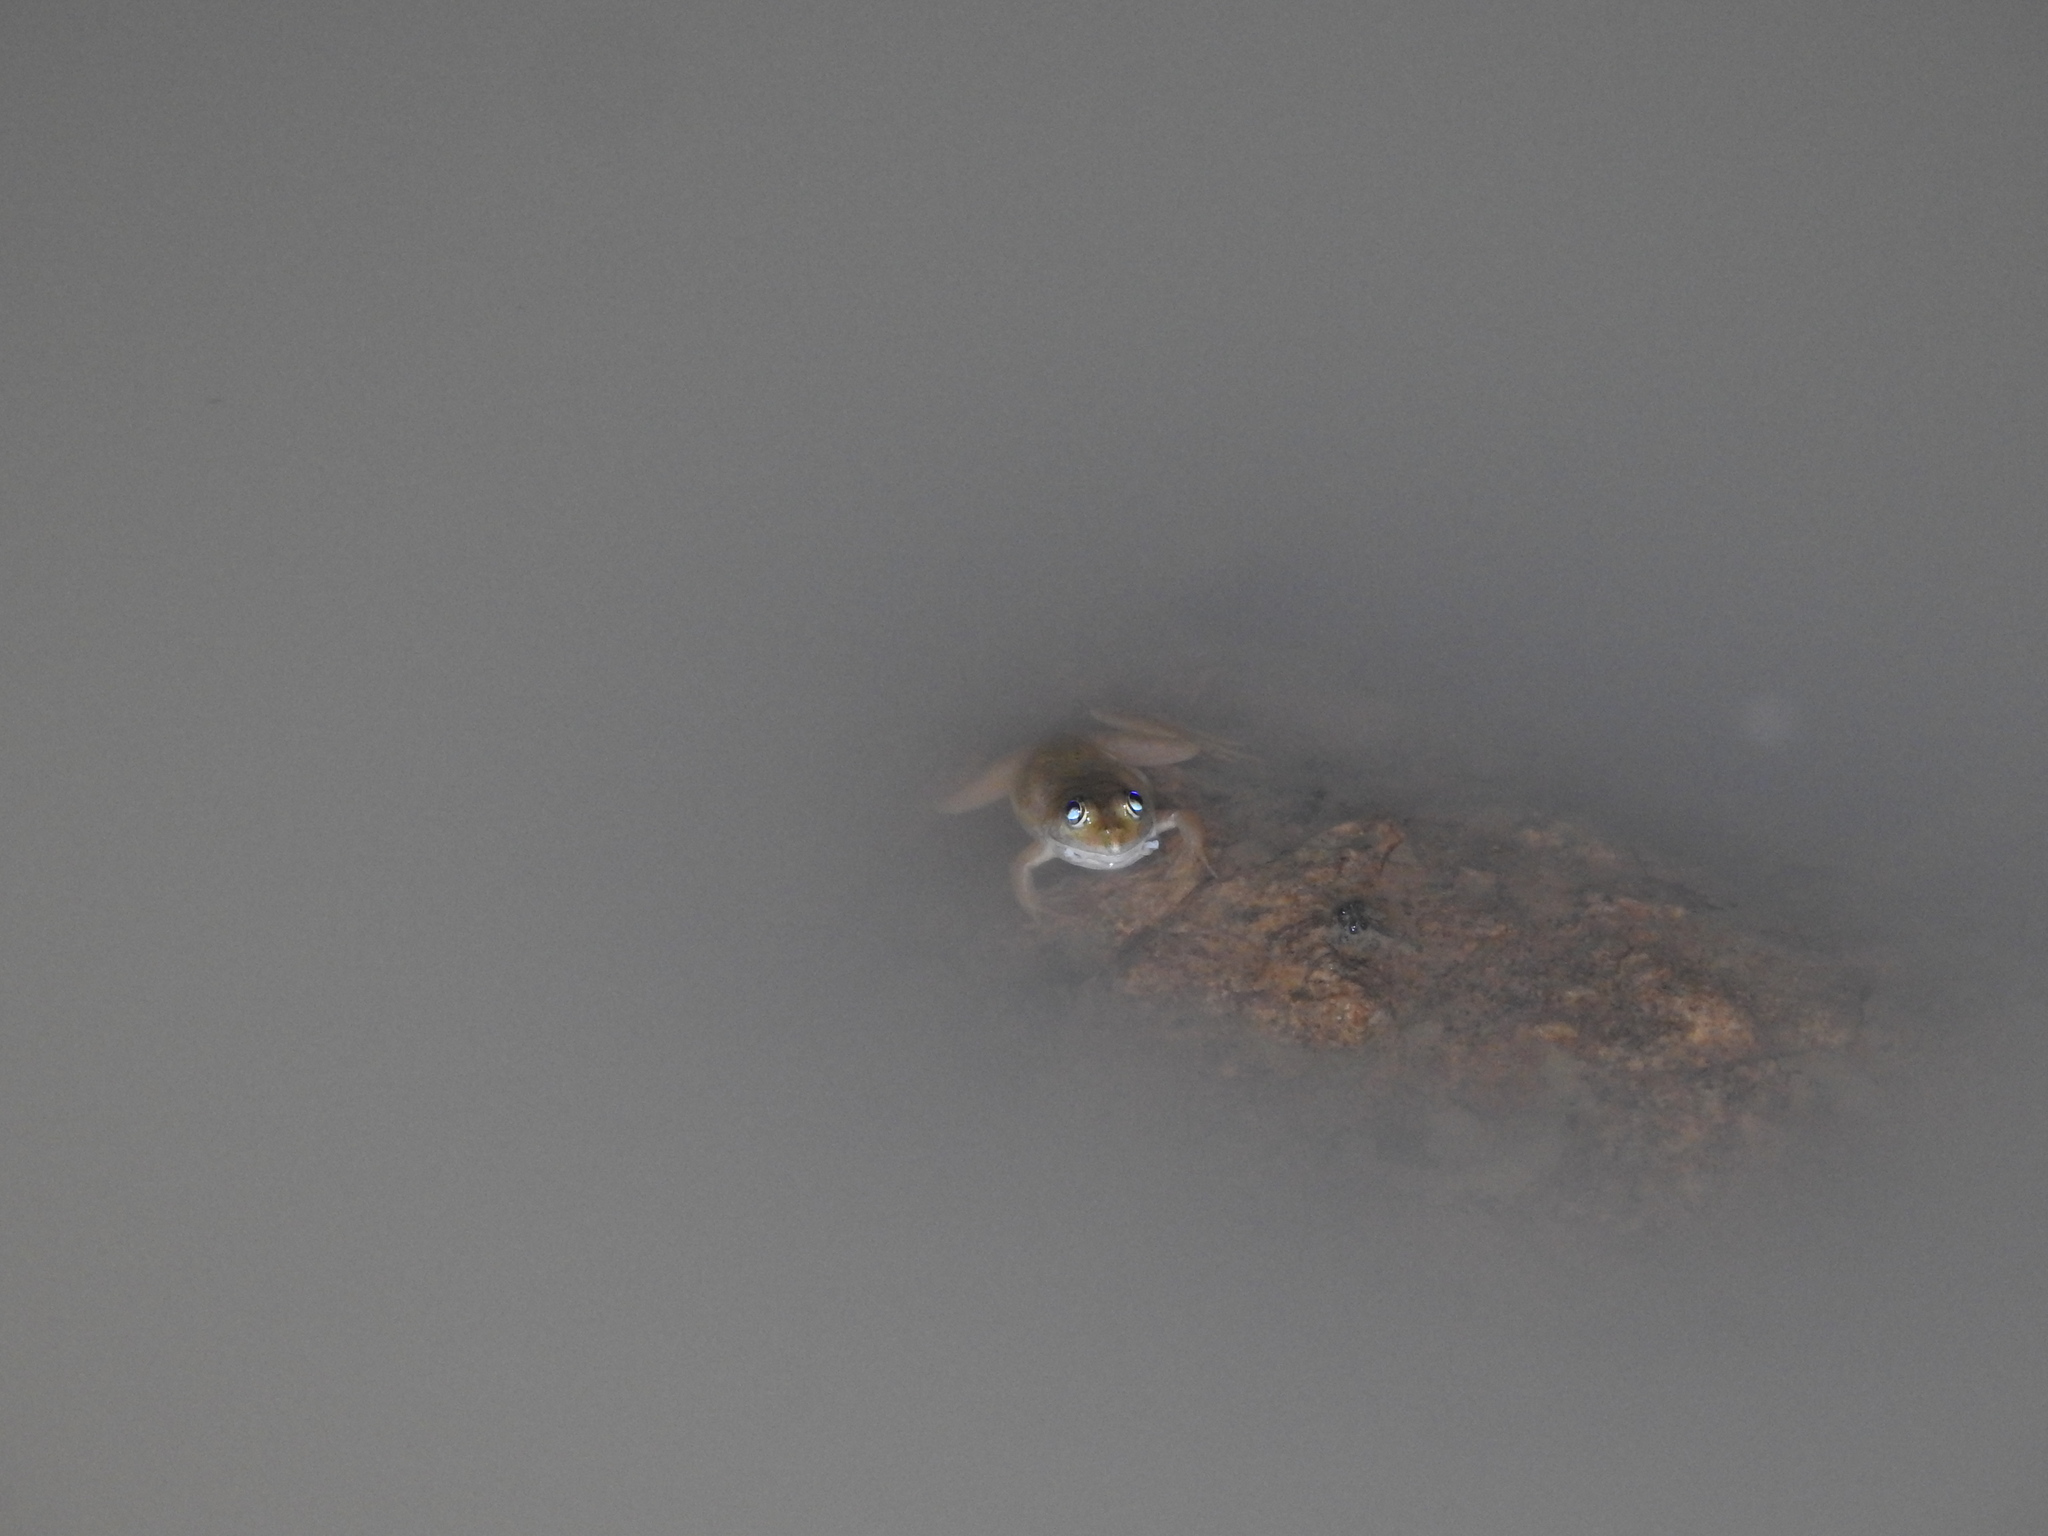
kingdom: Animalia
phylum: Chordata
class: Amphibia
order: Anura
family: Dicroglossidae
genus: Euphlyctis
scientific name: Euphlyctis cyanophlyctis
